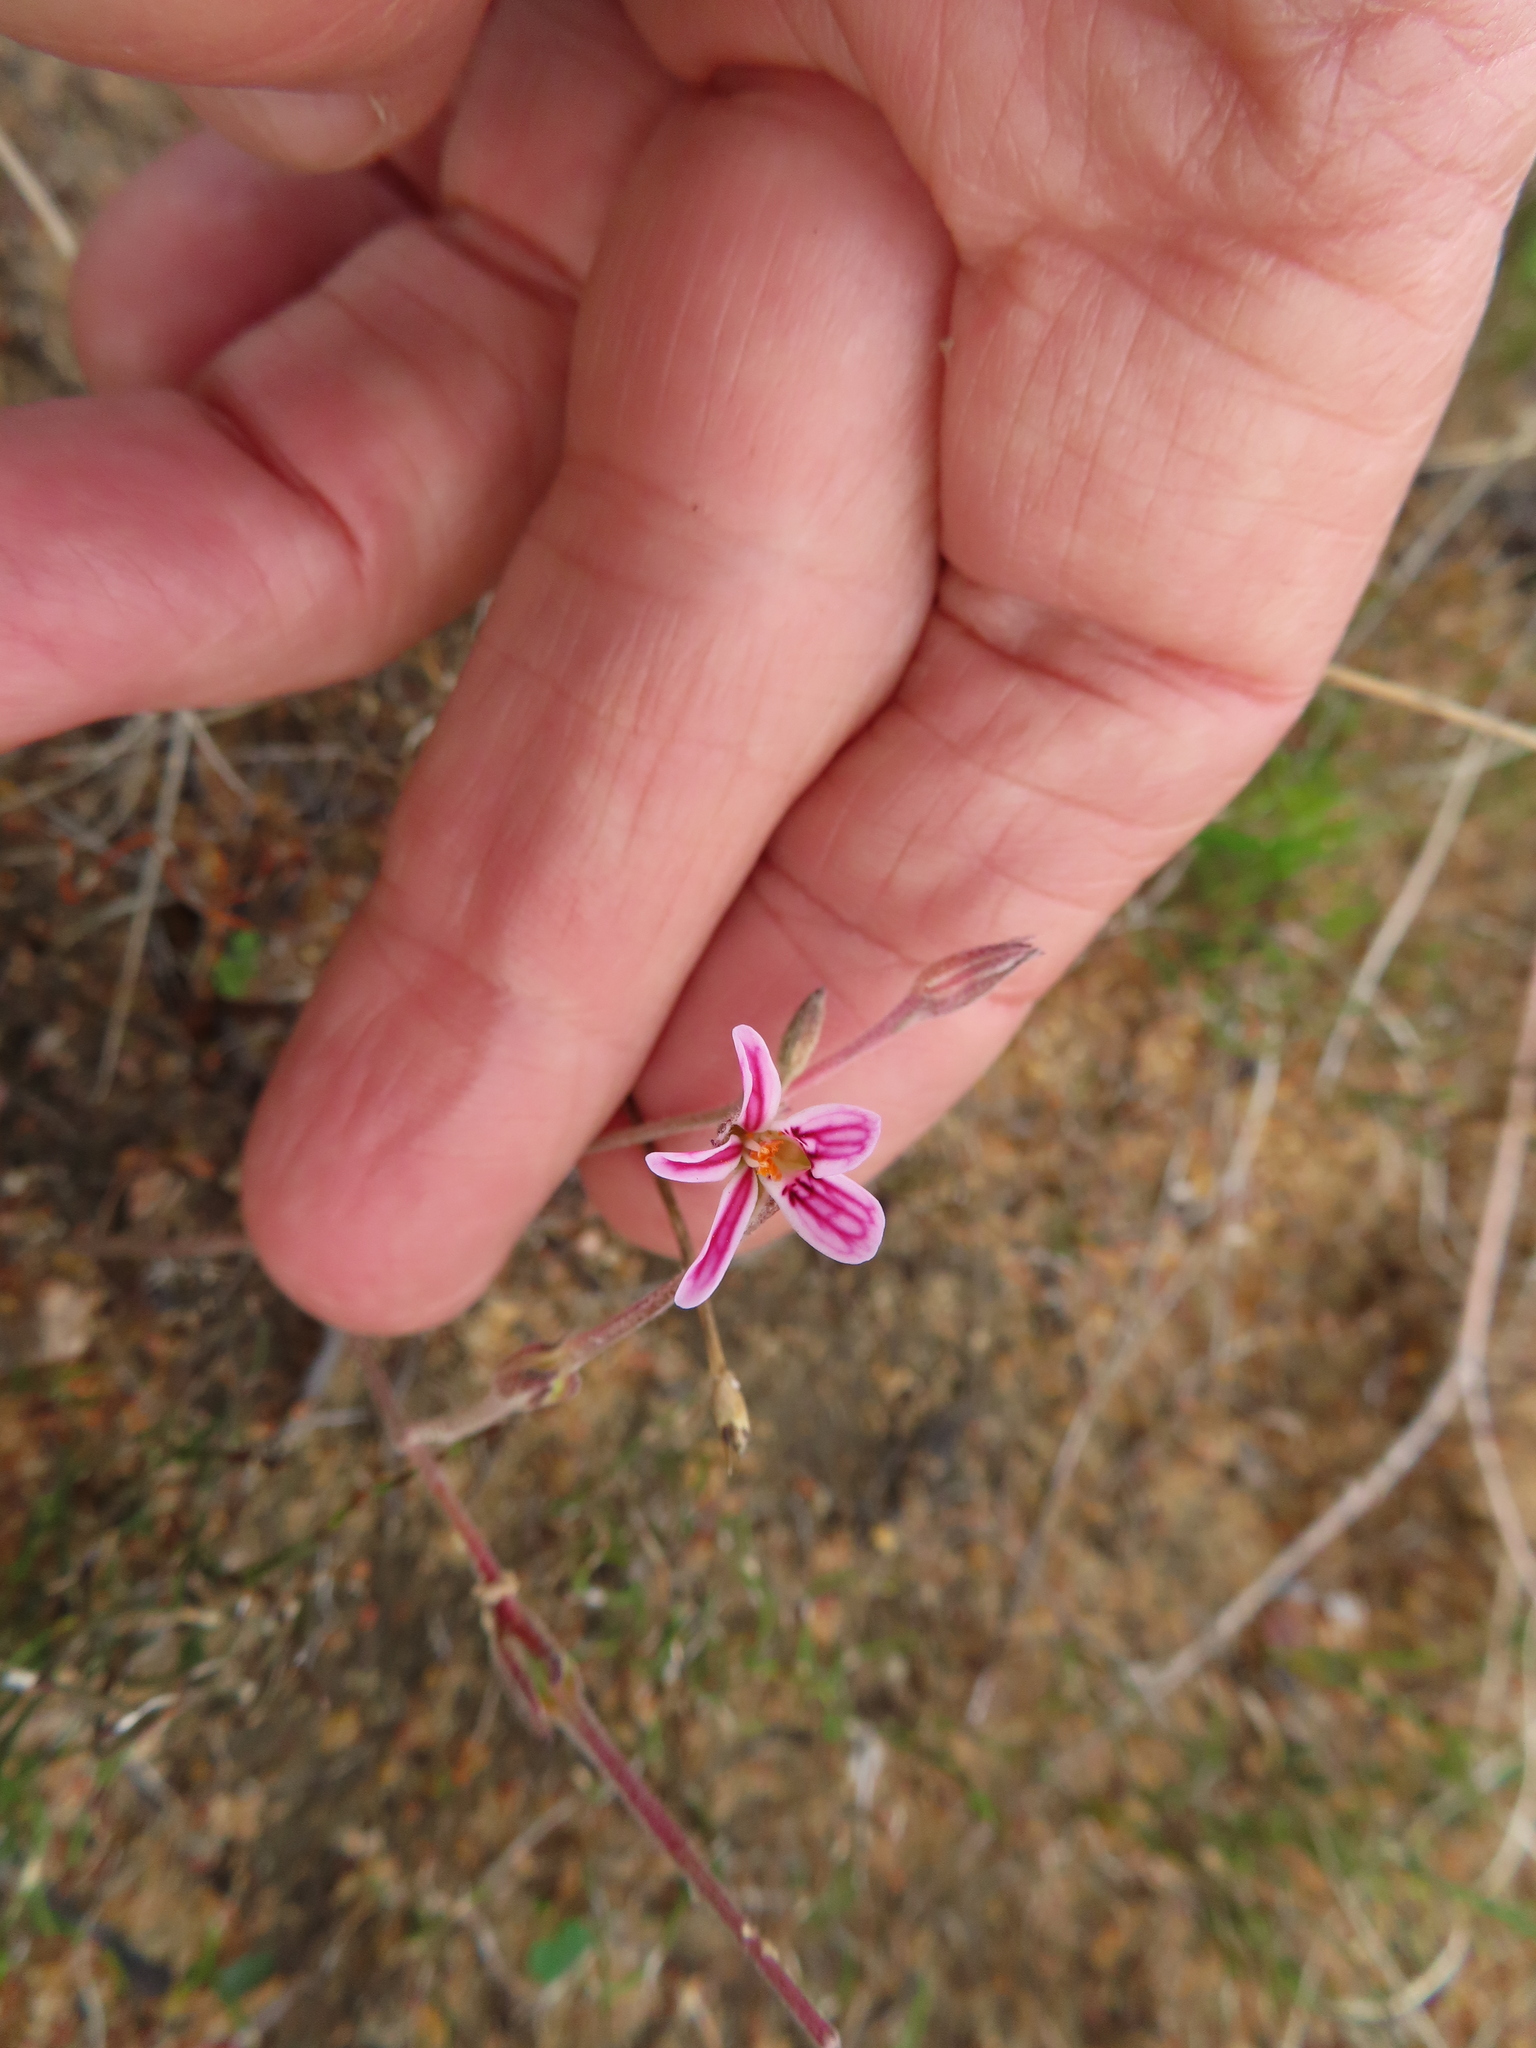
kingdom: Plantae
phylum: Tracheophyta
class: Magnoliopsida
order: Geraniales
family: Geraniaceae
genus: Pelargonium
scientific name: Pelargonium proliferum
